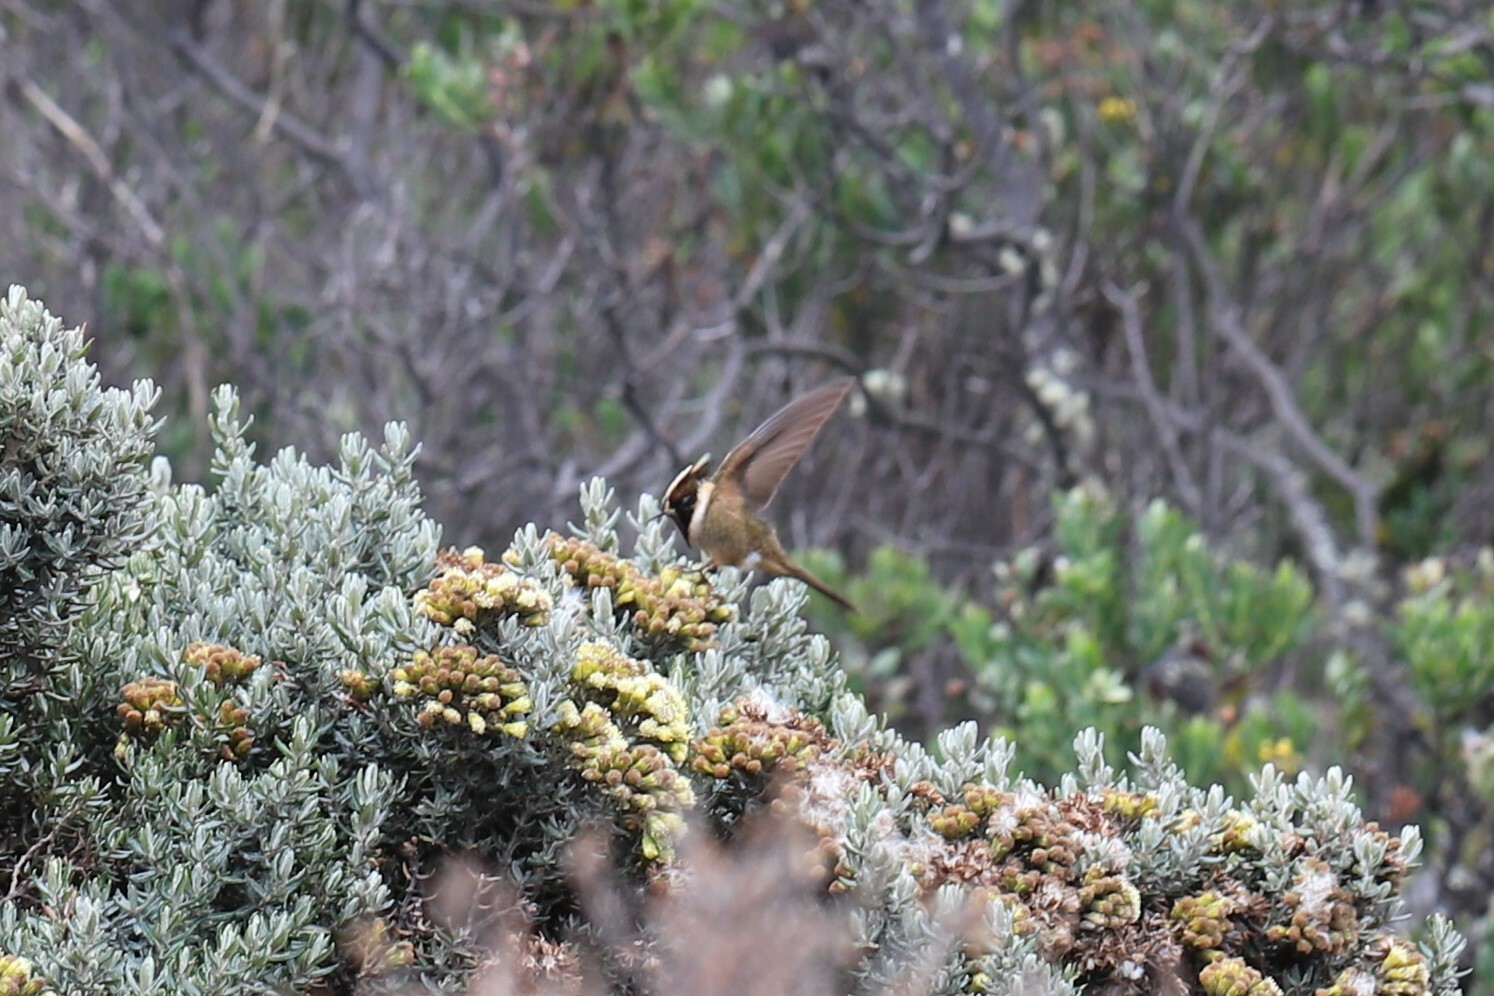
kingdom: Animalia
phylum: Chordata
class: Aves
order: Apodiformes
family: Trochilidae
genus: Oxypogon
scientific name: Oxypogon stuebelii
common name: Buffy helmetcrest
